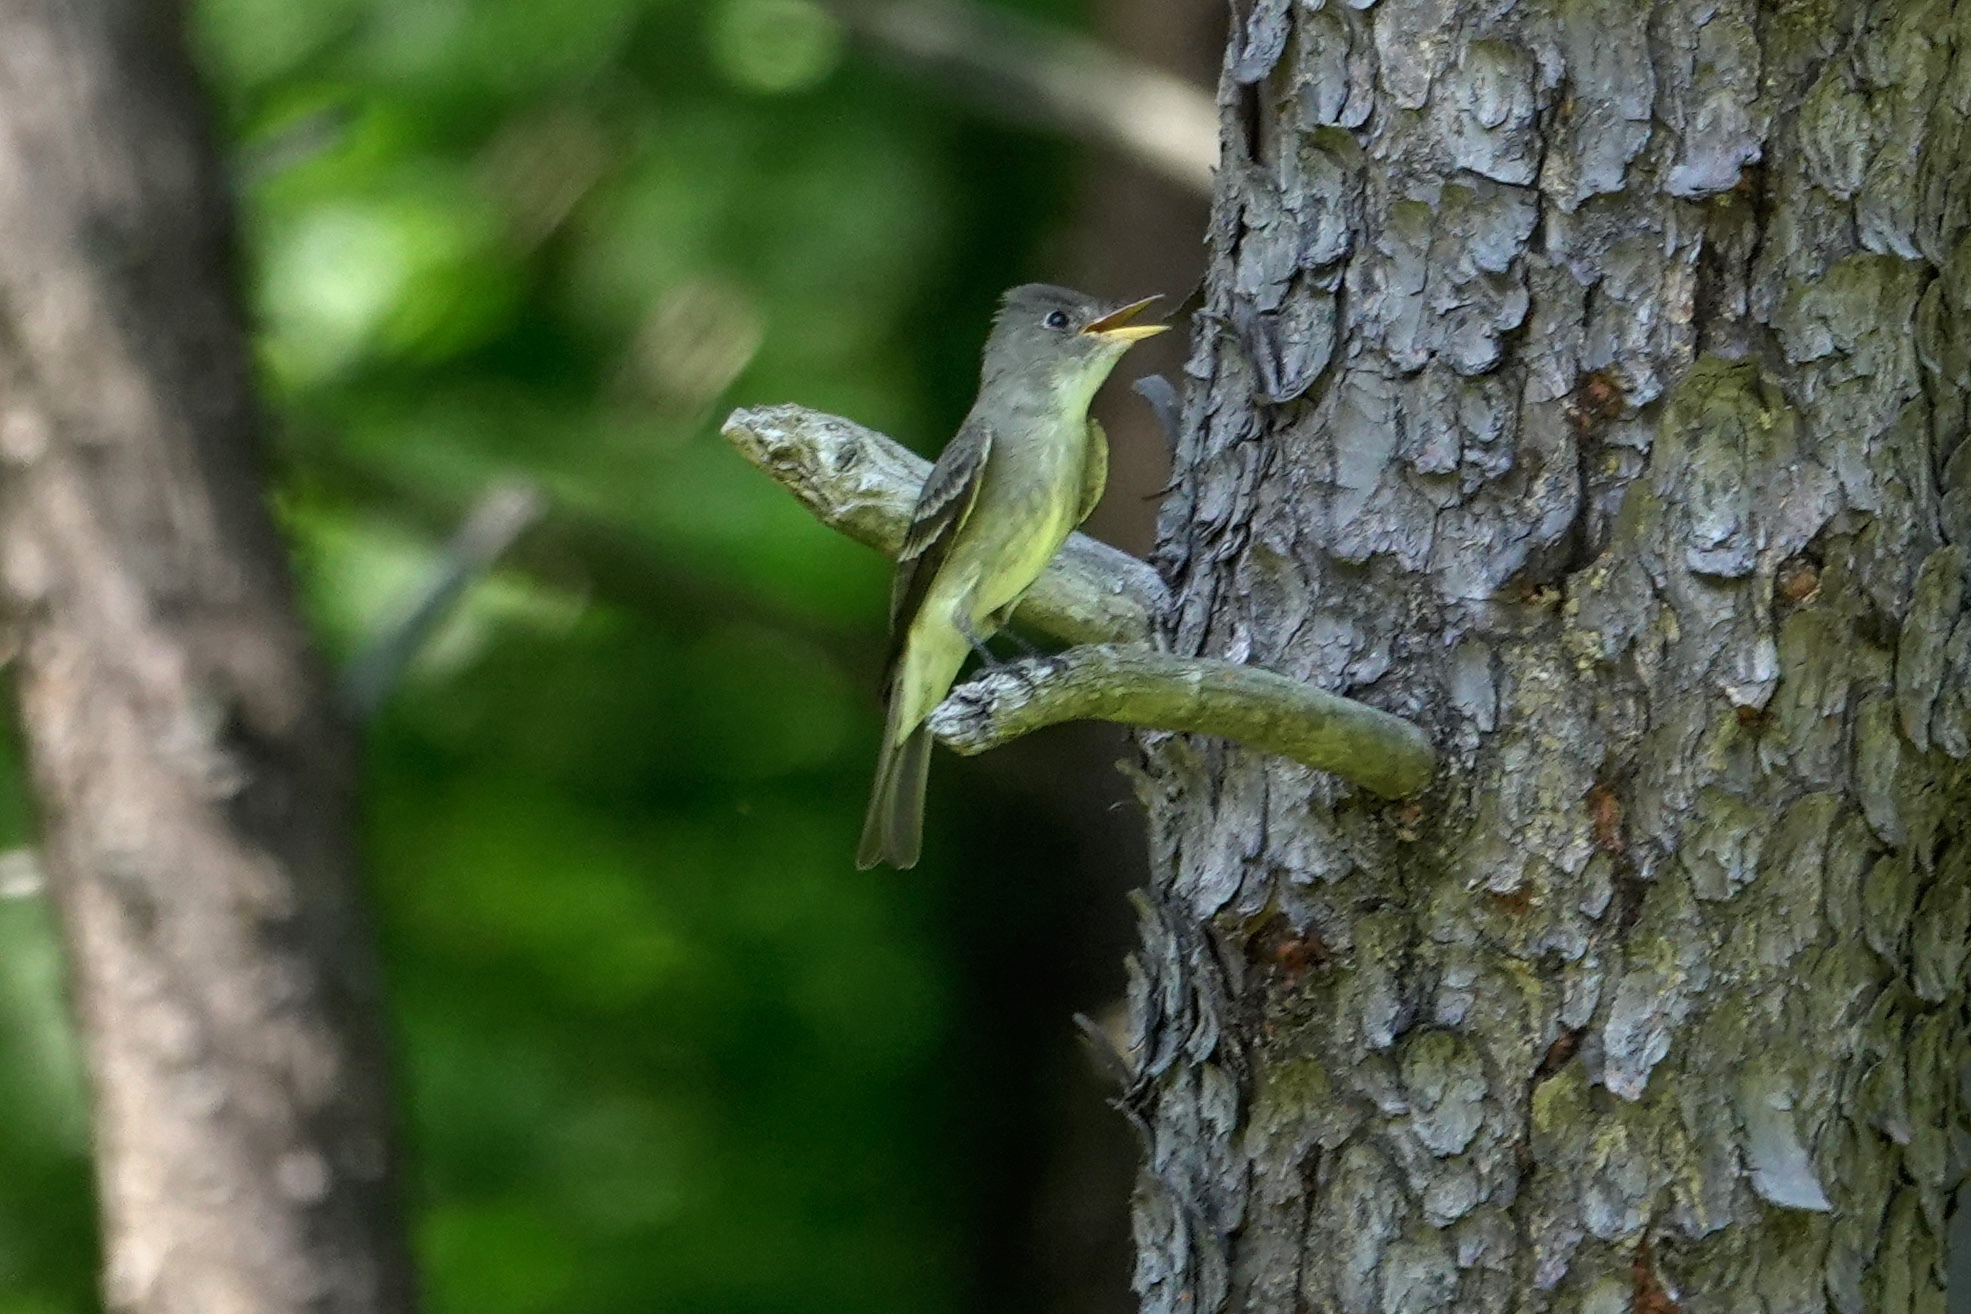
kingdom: Animalia
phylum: Chordata
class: Aves
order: Passeriformes
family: Tyrannidae
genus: Myiarchus
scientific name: Myiarchus crinitus
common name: Great crested flycatcher
